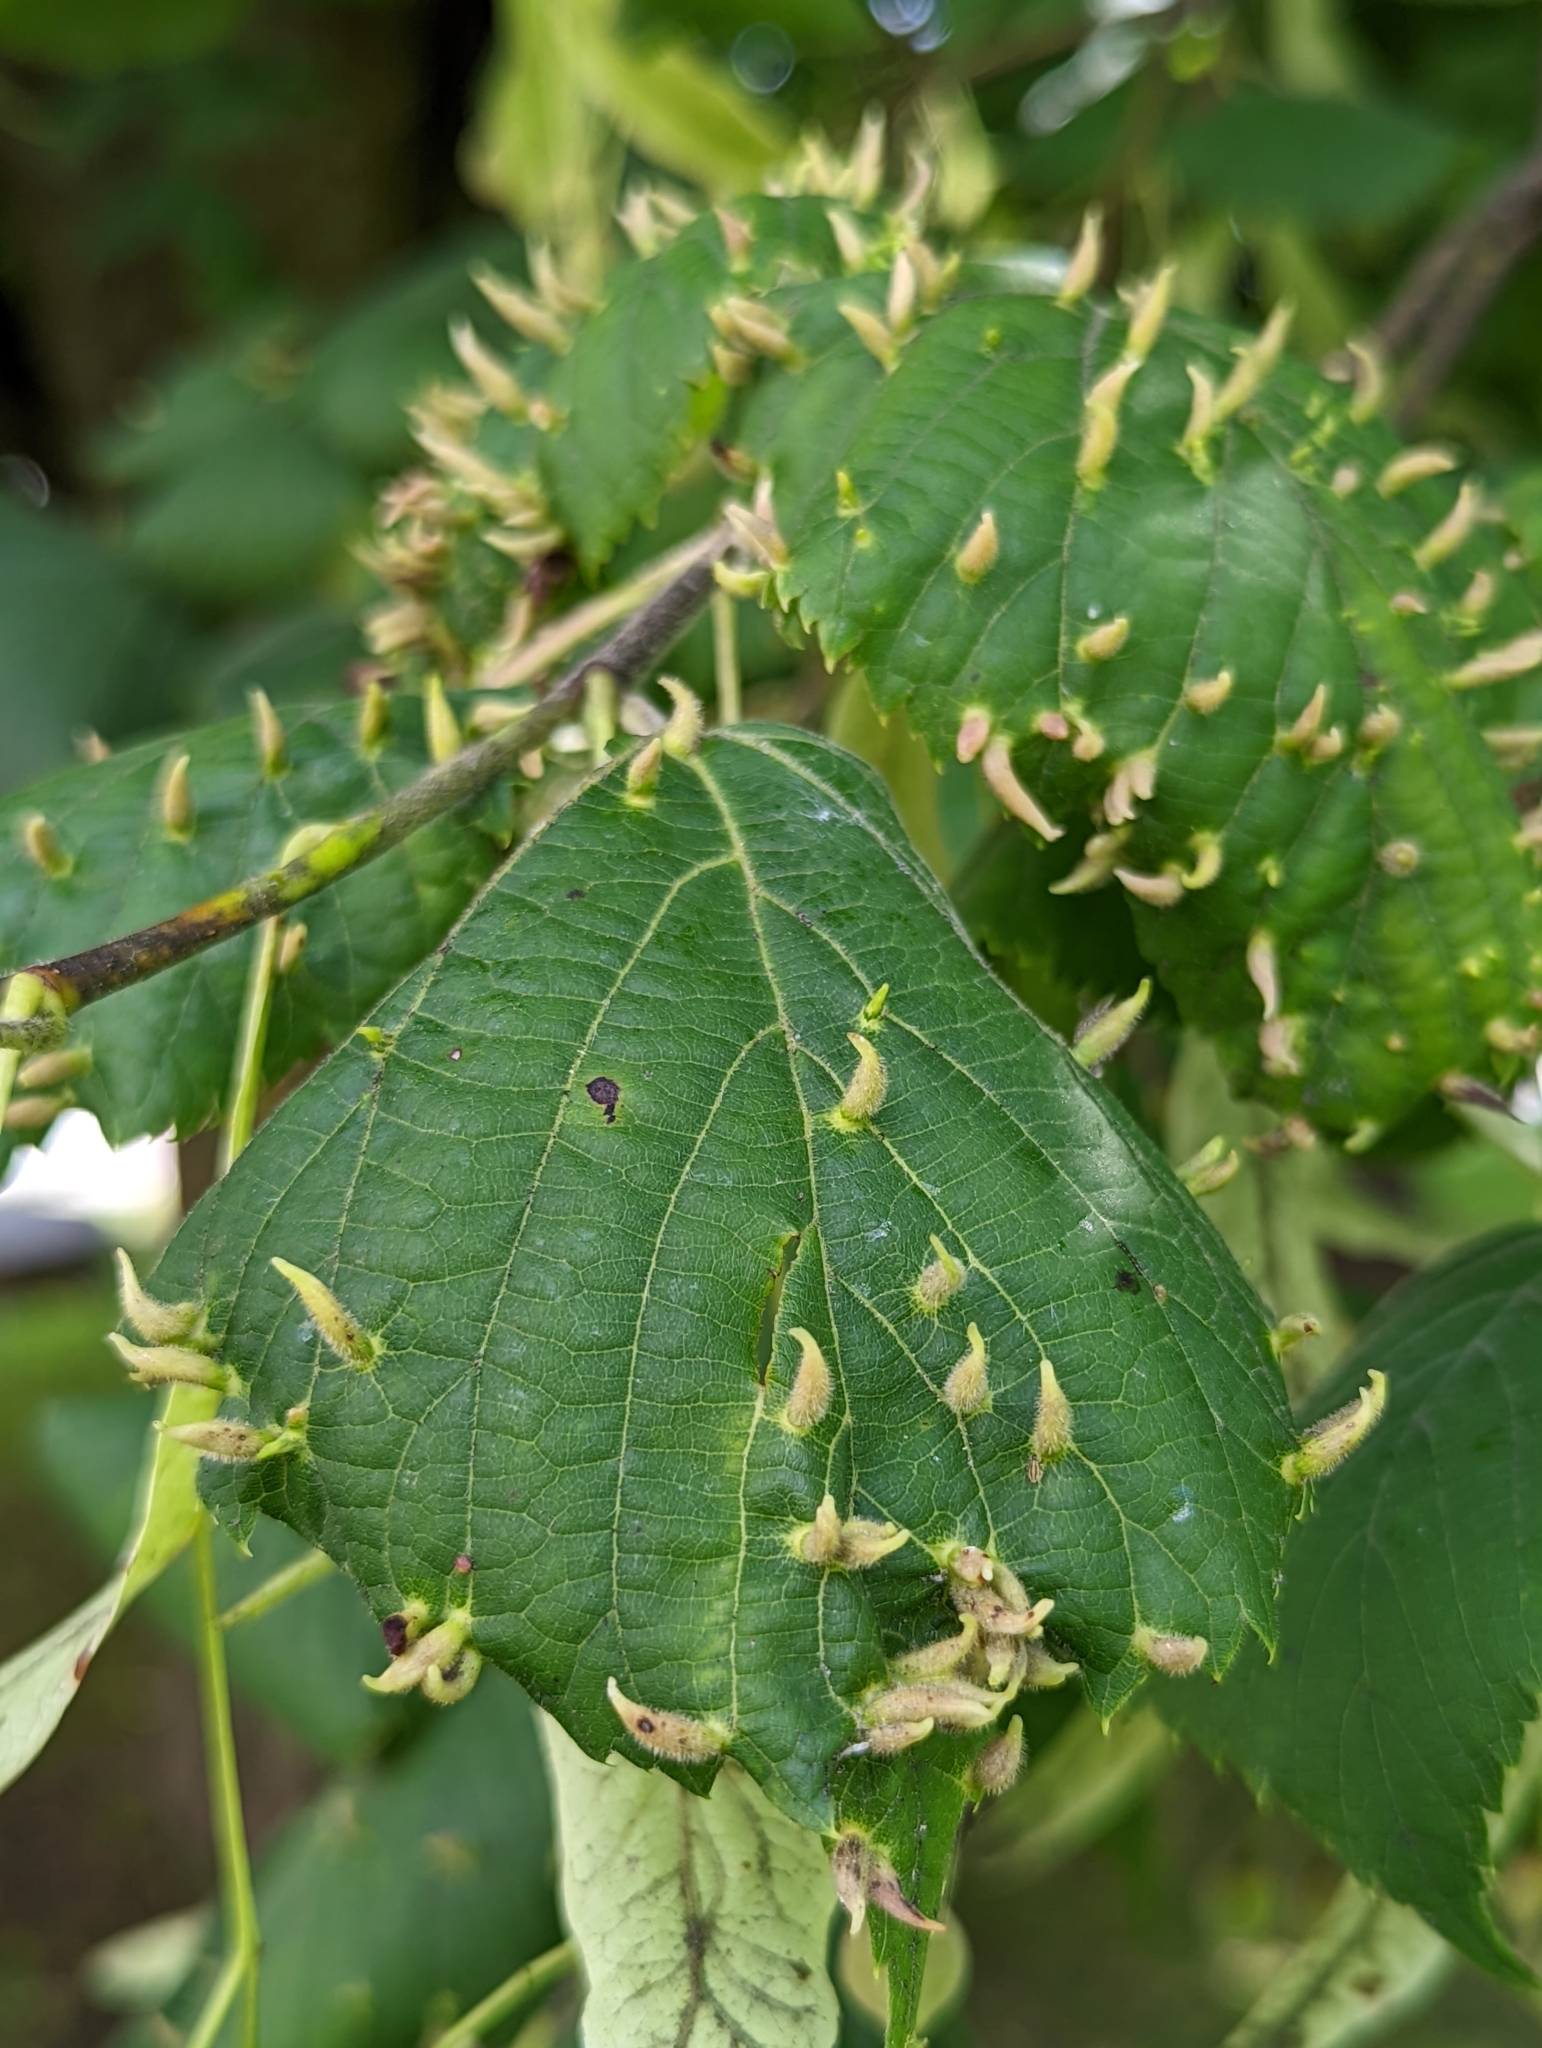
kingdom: Animalia
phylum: Arthropoda
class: Arachnida
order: Trombidiformes
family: Eriophyidae
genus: Eriophyes
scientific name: Eriophyes tiliae
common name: Red nail gall mite
